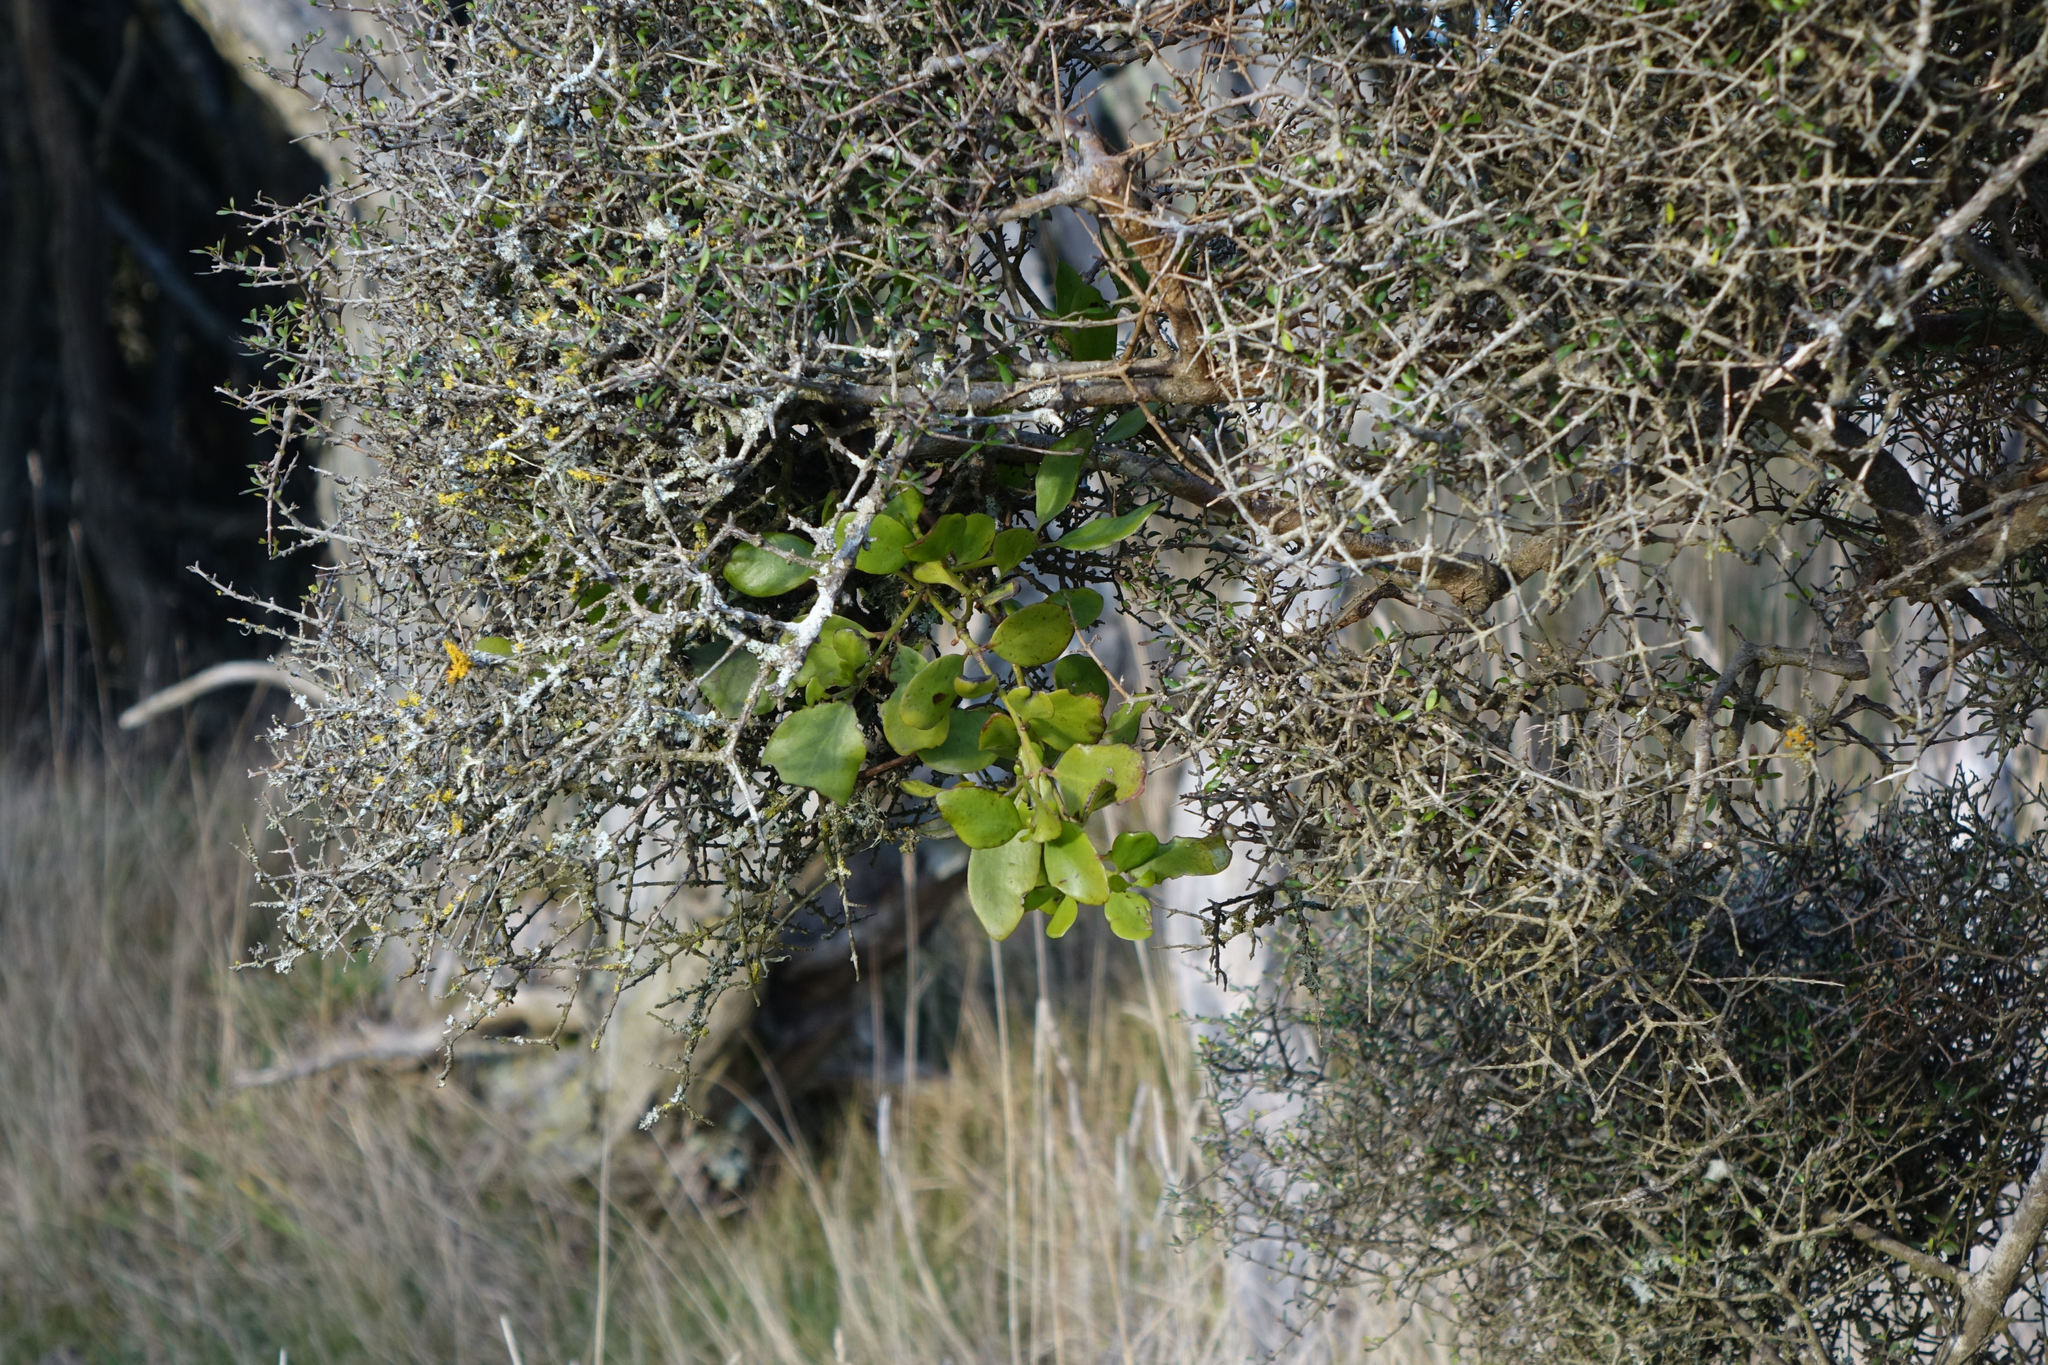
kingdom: Plantae
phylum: Tracheophyta
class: Magnoliopsida
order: Santalales
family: Loranthaceae
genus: Ileostylus
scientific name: Ileostylus micranthus
